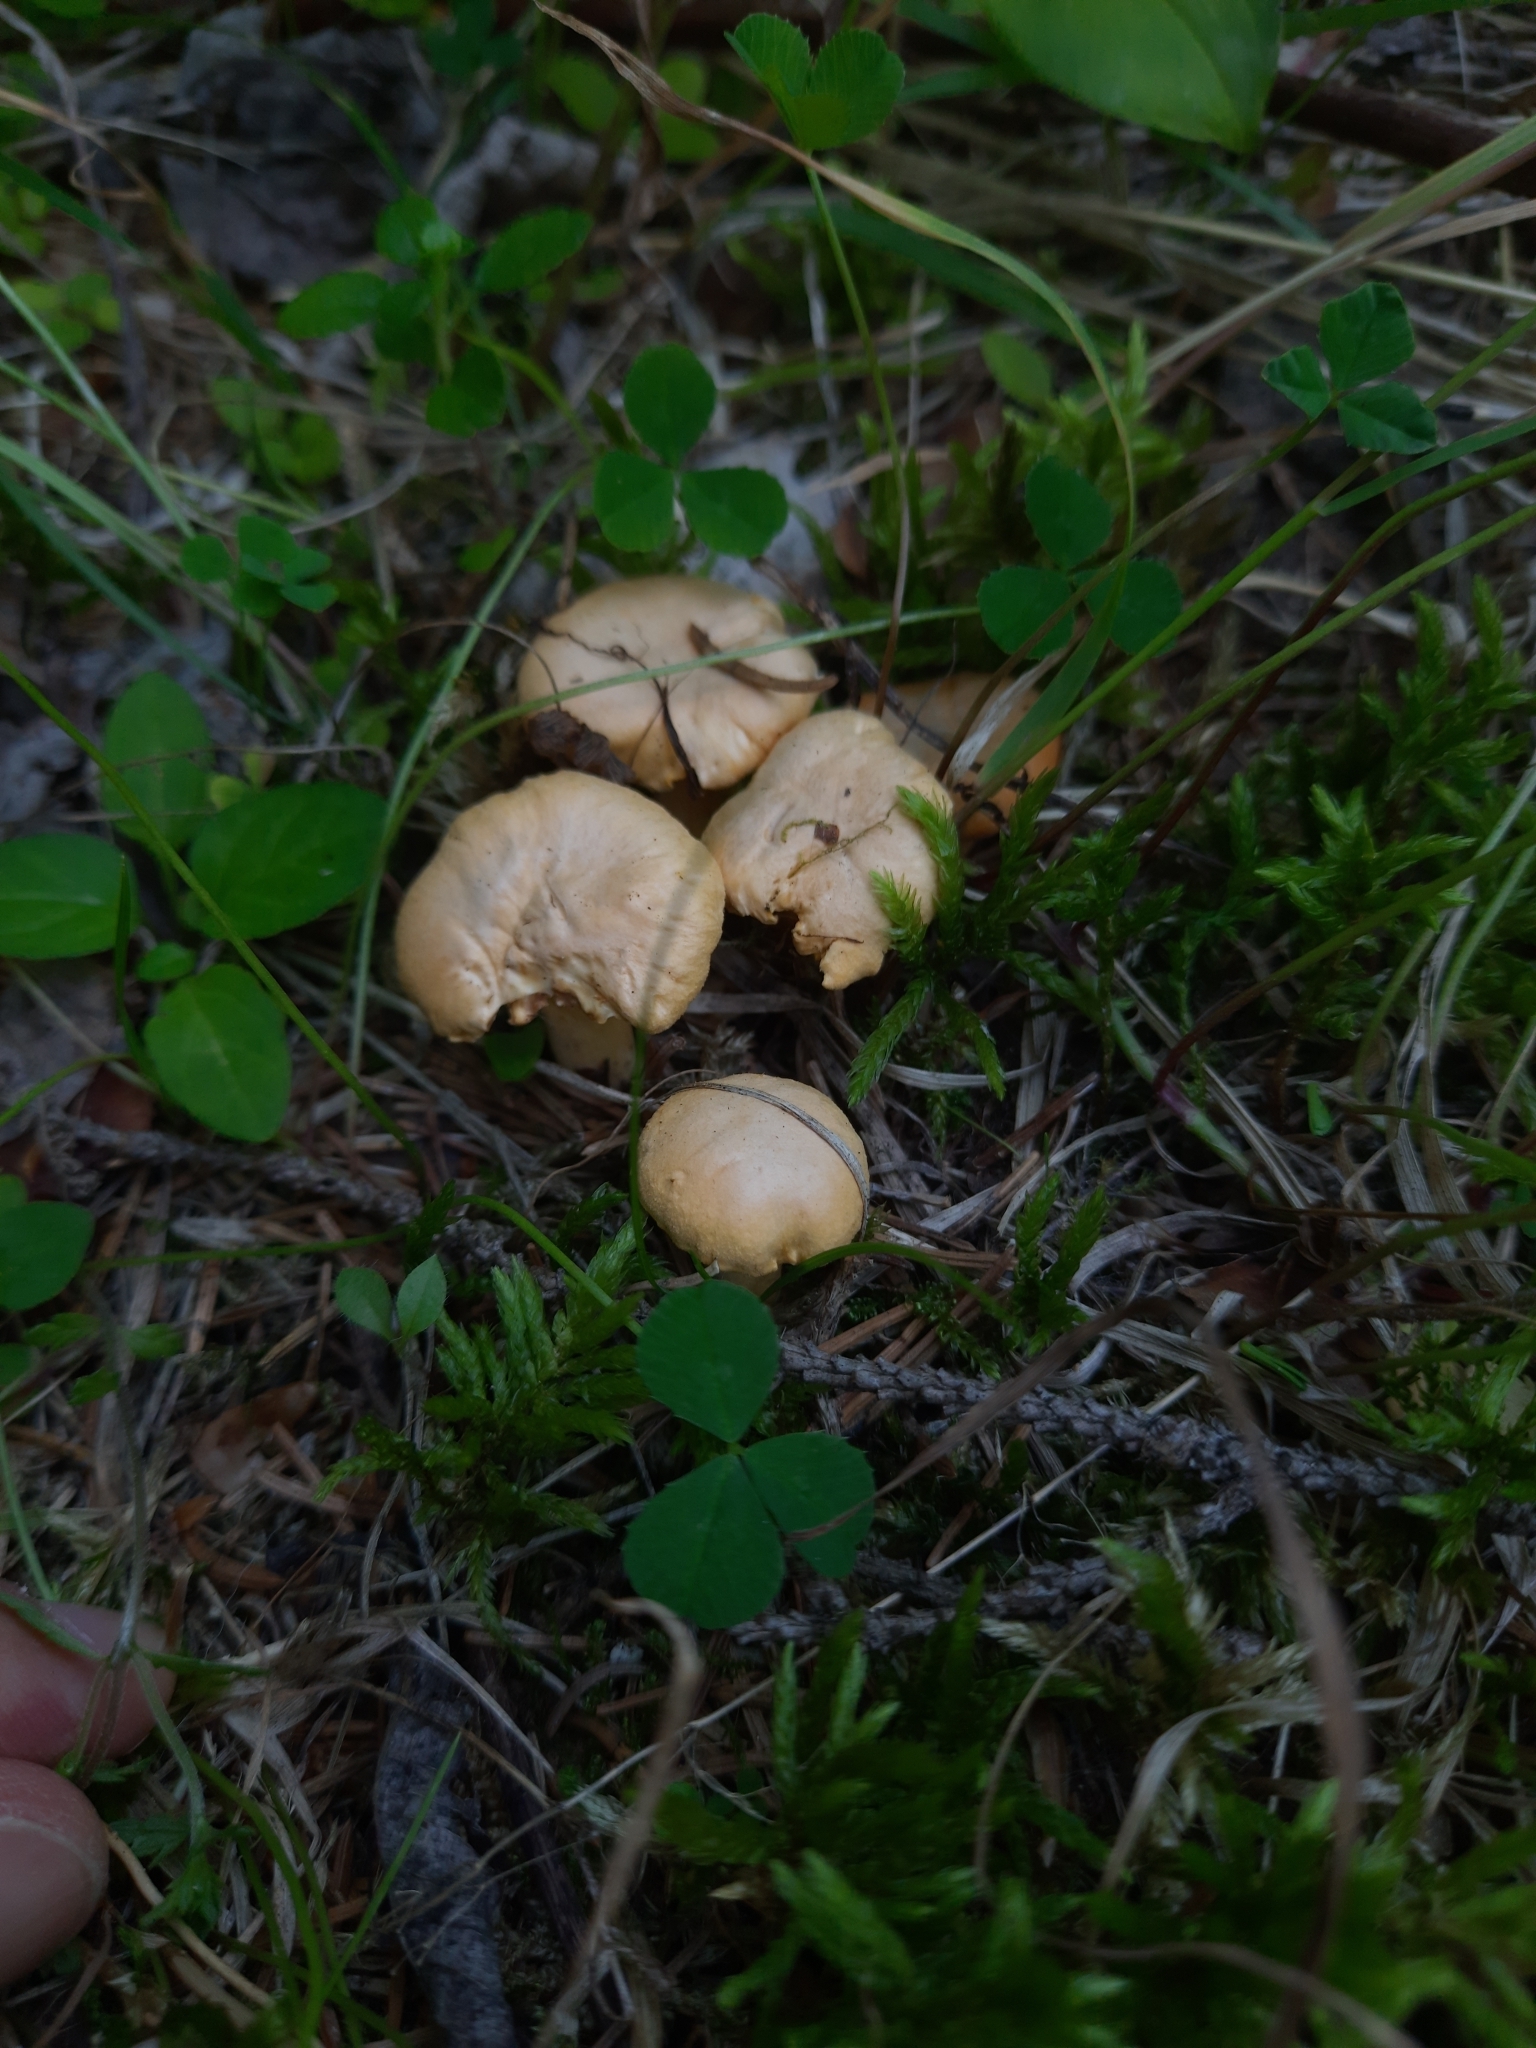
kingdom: Fungi
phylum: Basidiomycota
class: Agaricomycetes
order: Cantharellales
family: Hydnaceae
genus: Cantharellus
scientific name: Cantharellus cibarius
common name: Chanterelle
